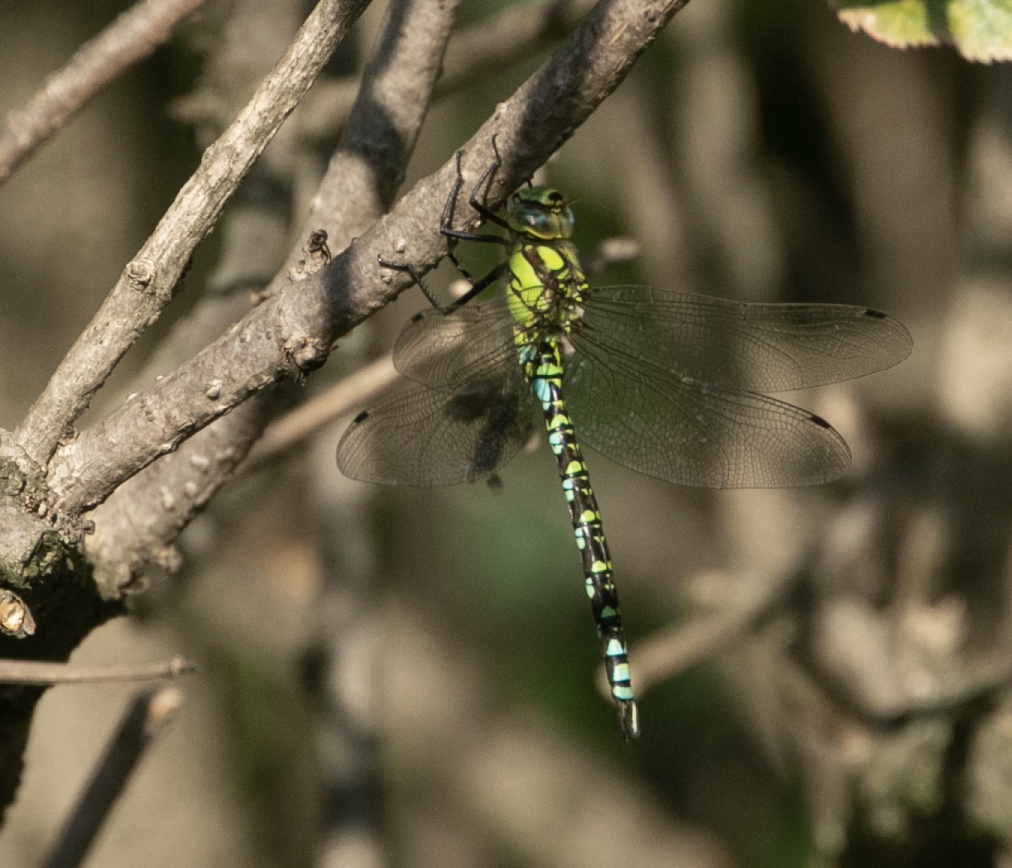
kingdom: Animalia
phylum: Arthropoda
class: Insecta
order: Odonata
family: Aeshnidae
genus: Aeshna
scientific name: Aeshna cyanea
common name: Southern hawker
